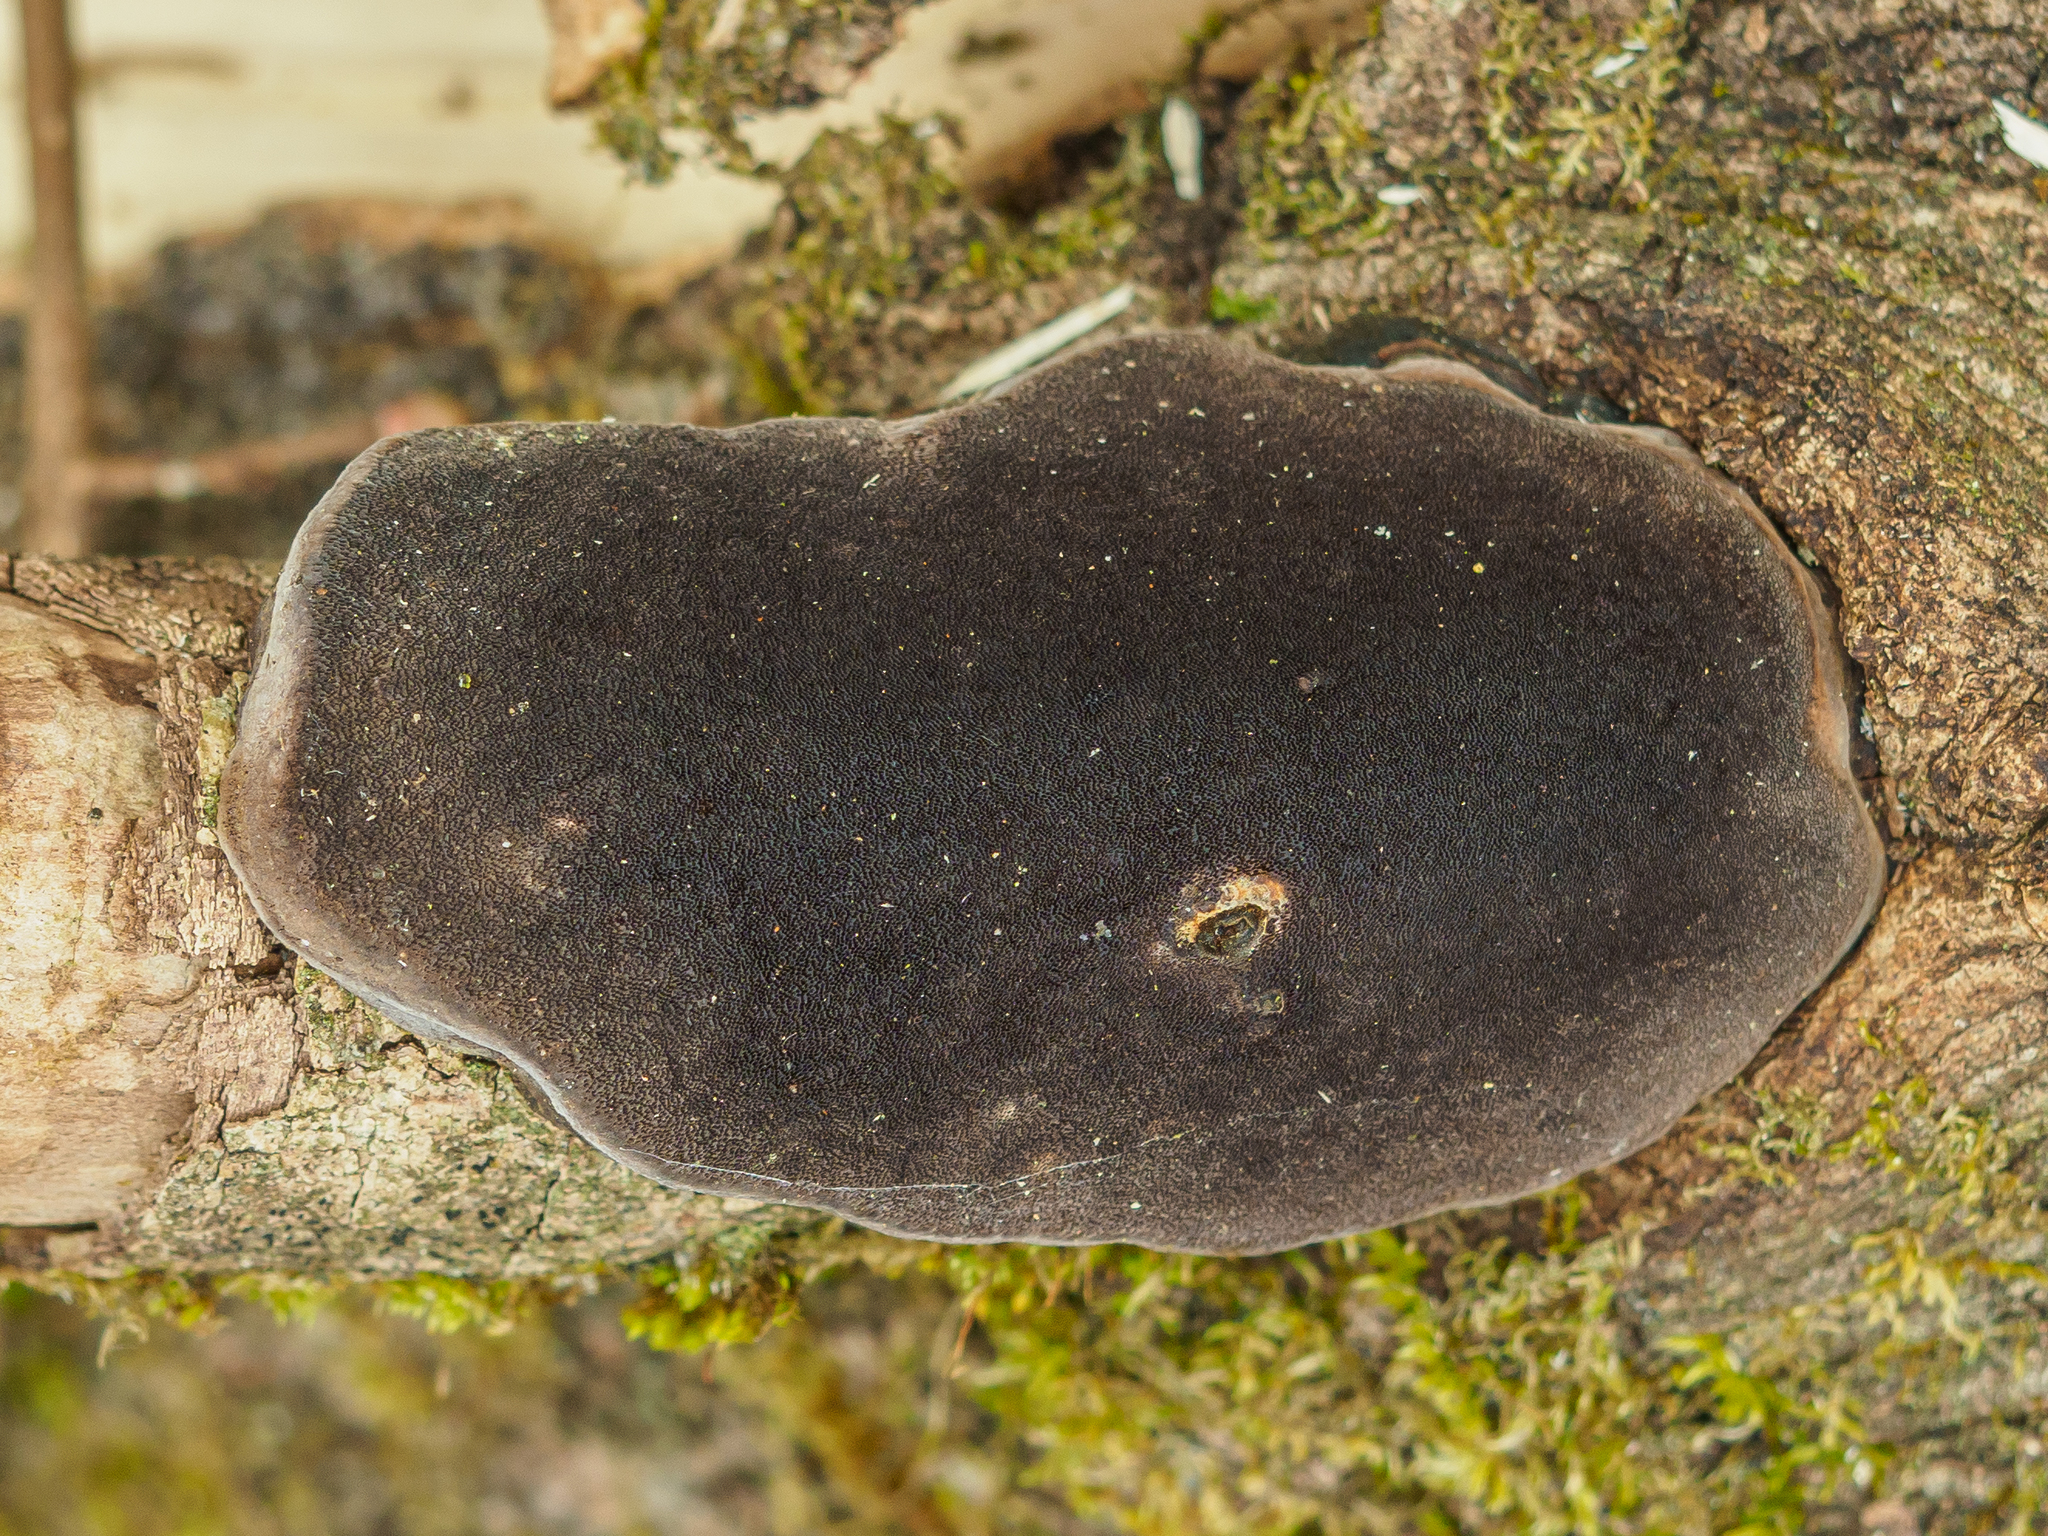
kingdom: Fungi
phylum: Basidiomycota
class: Agaricomycetes
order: Hymenochaetales
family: Hymenochaetaceae
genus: Fomitiporia
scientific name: Fomitiporia punctata
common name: Elbowpatch crust
